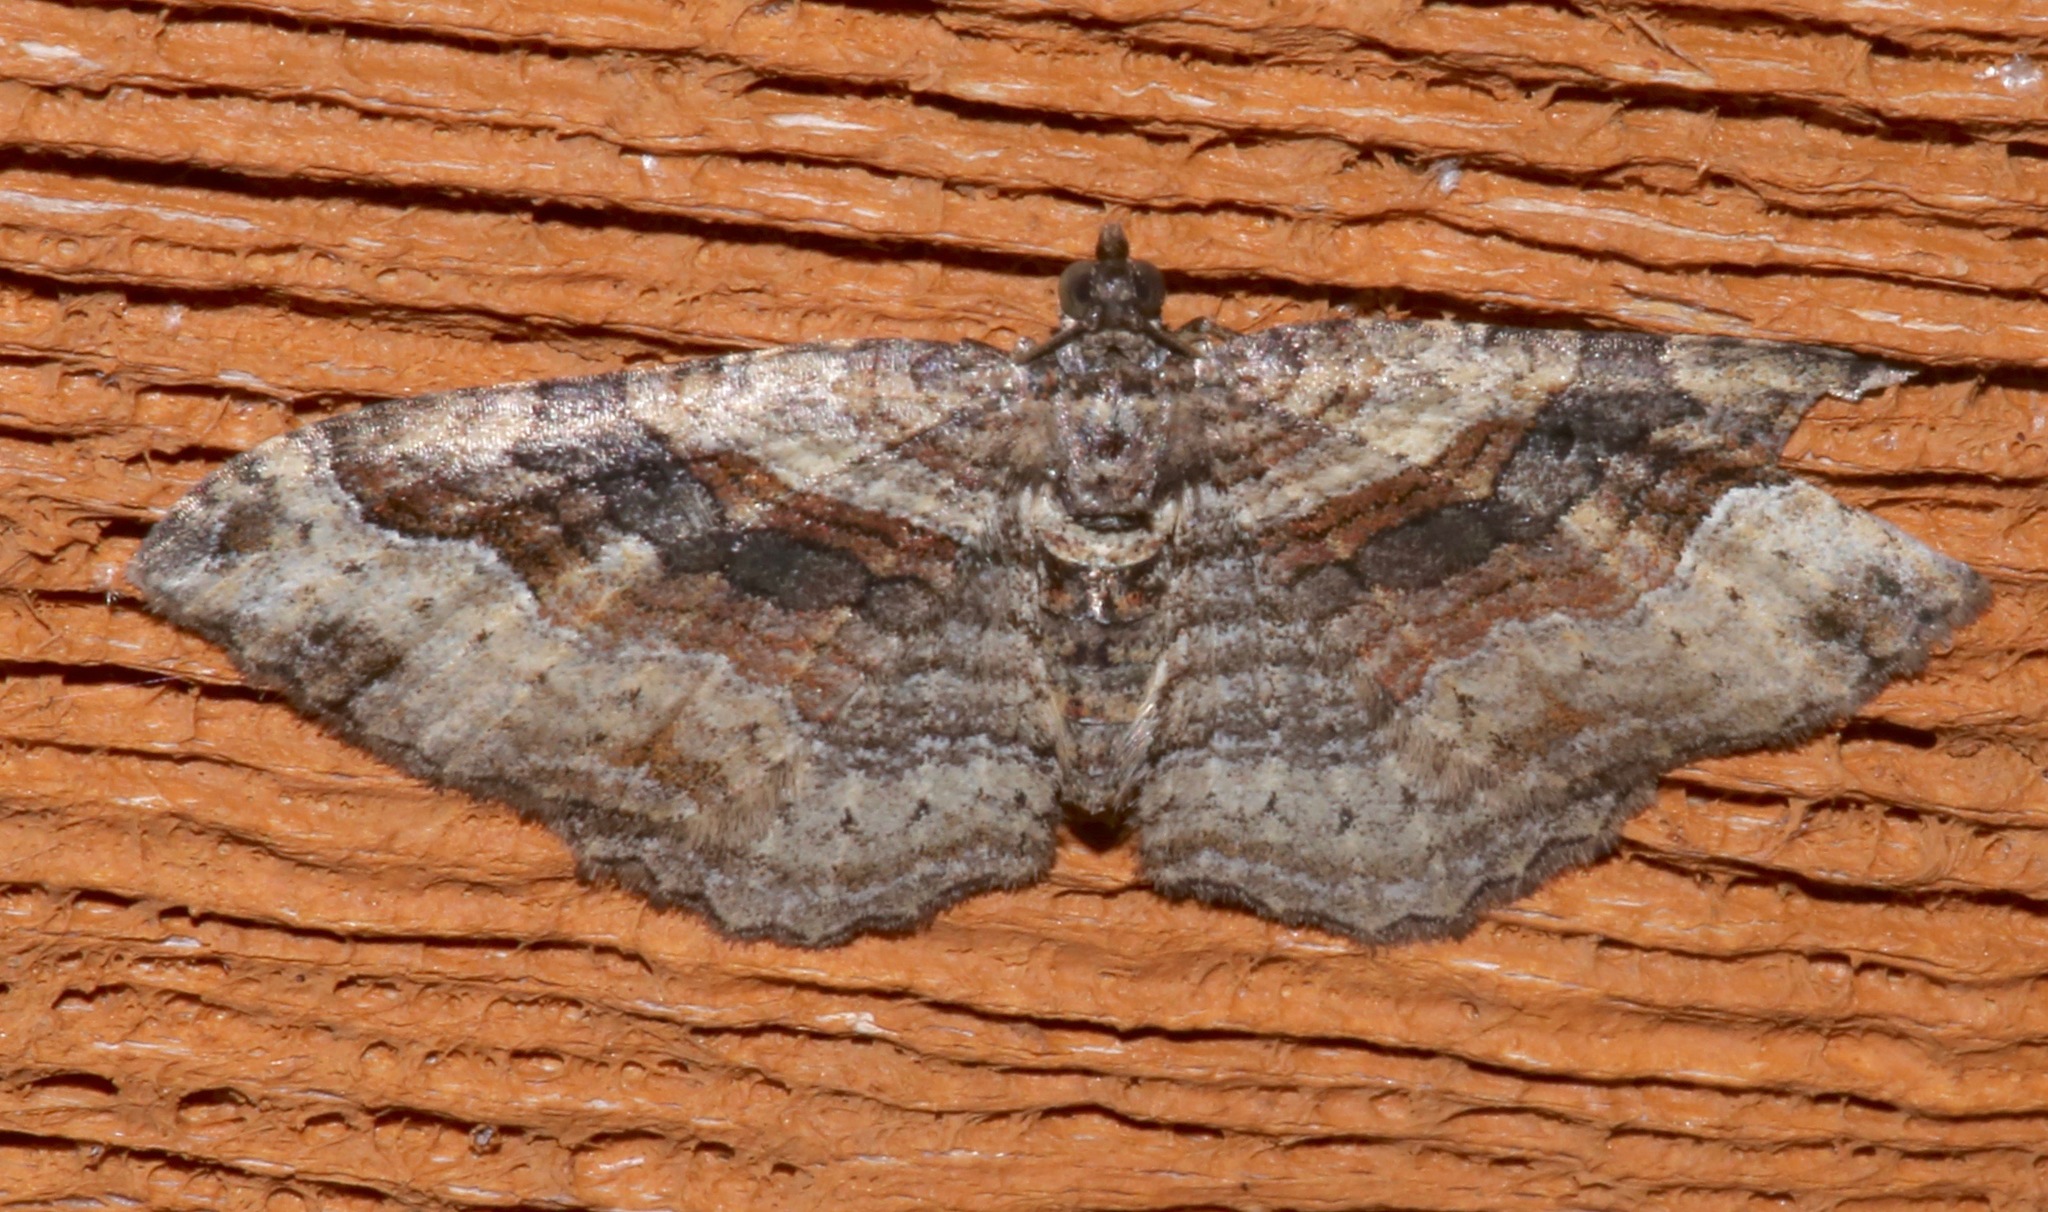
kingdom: Animalia
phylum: Arthropoda
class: Insecta
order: Lepidoptera
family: Geometridae
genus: Costaconvexa
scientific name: Costaconvexa centrostrigaria
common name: Bent-line carpet
